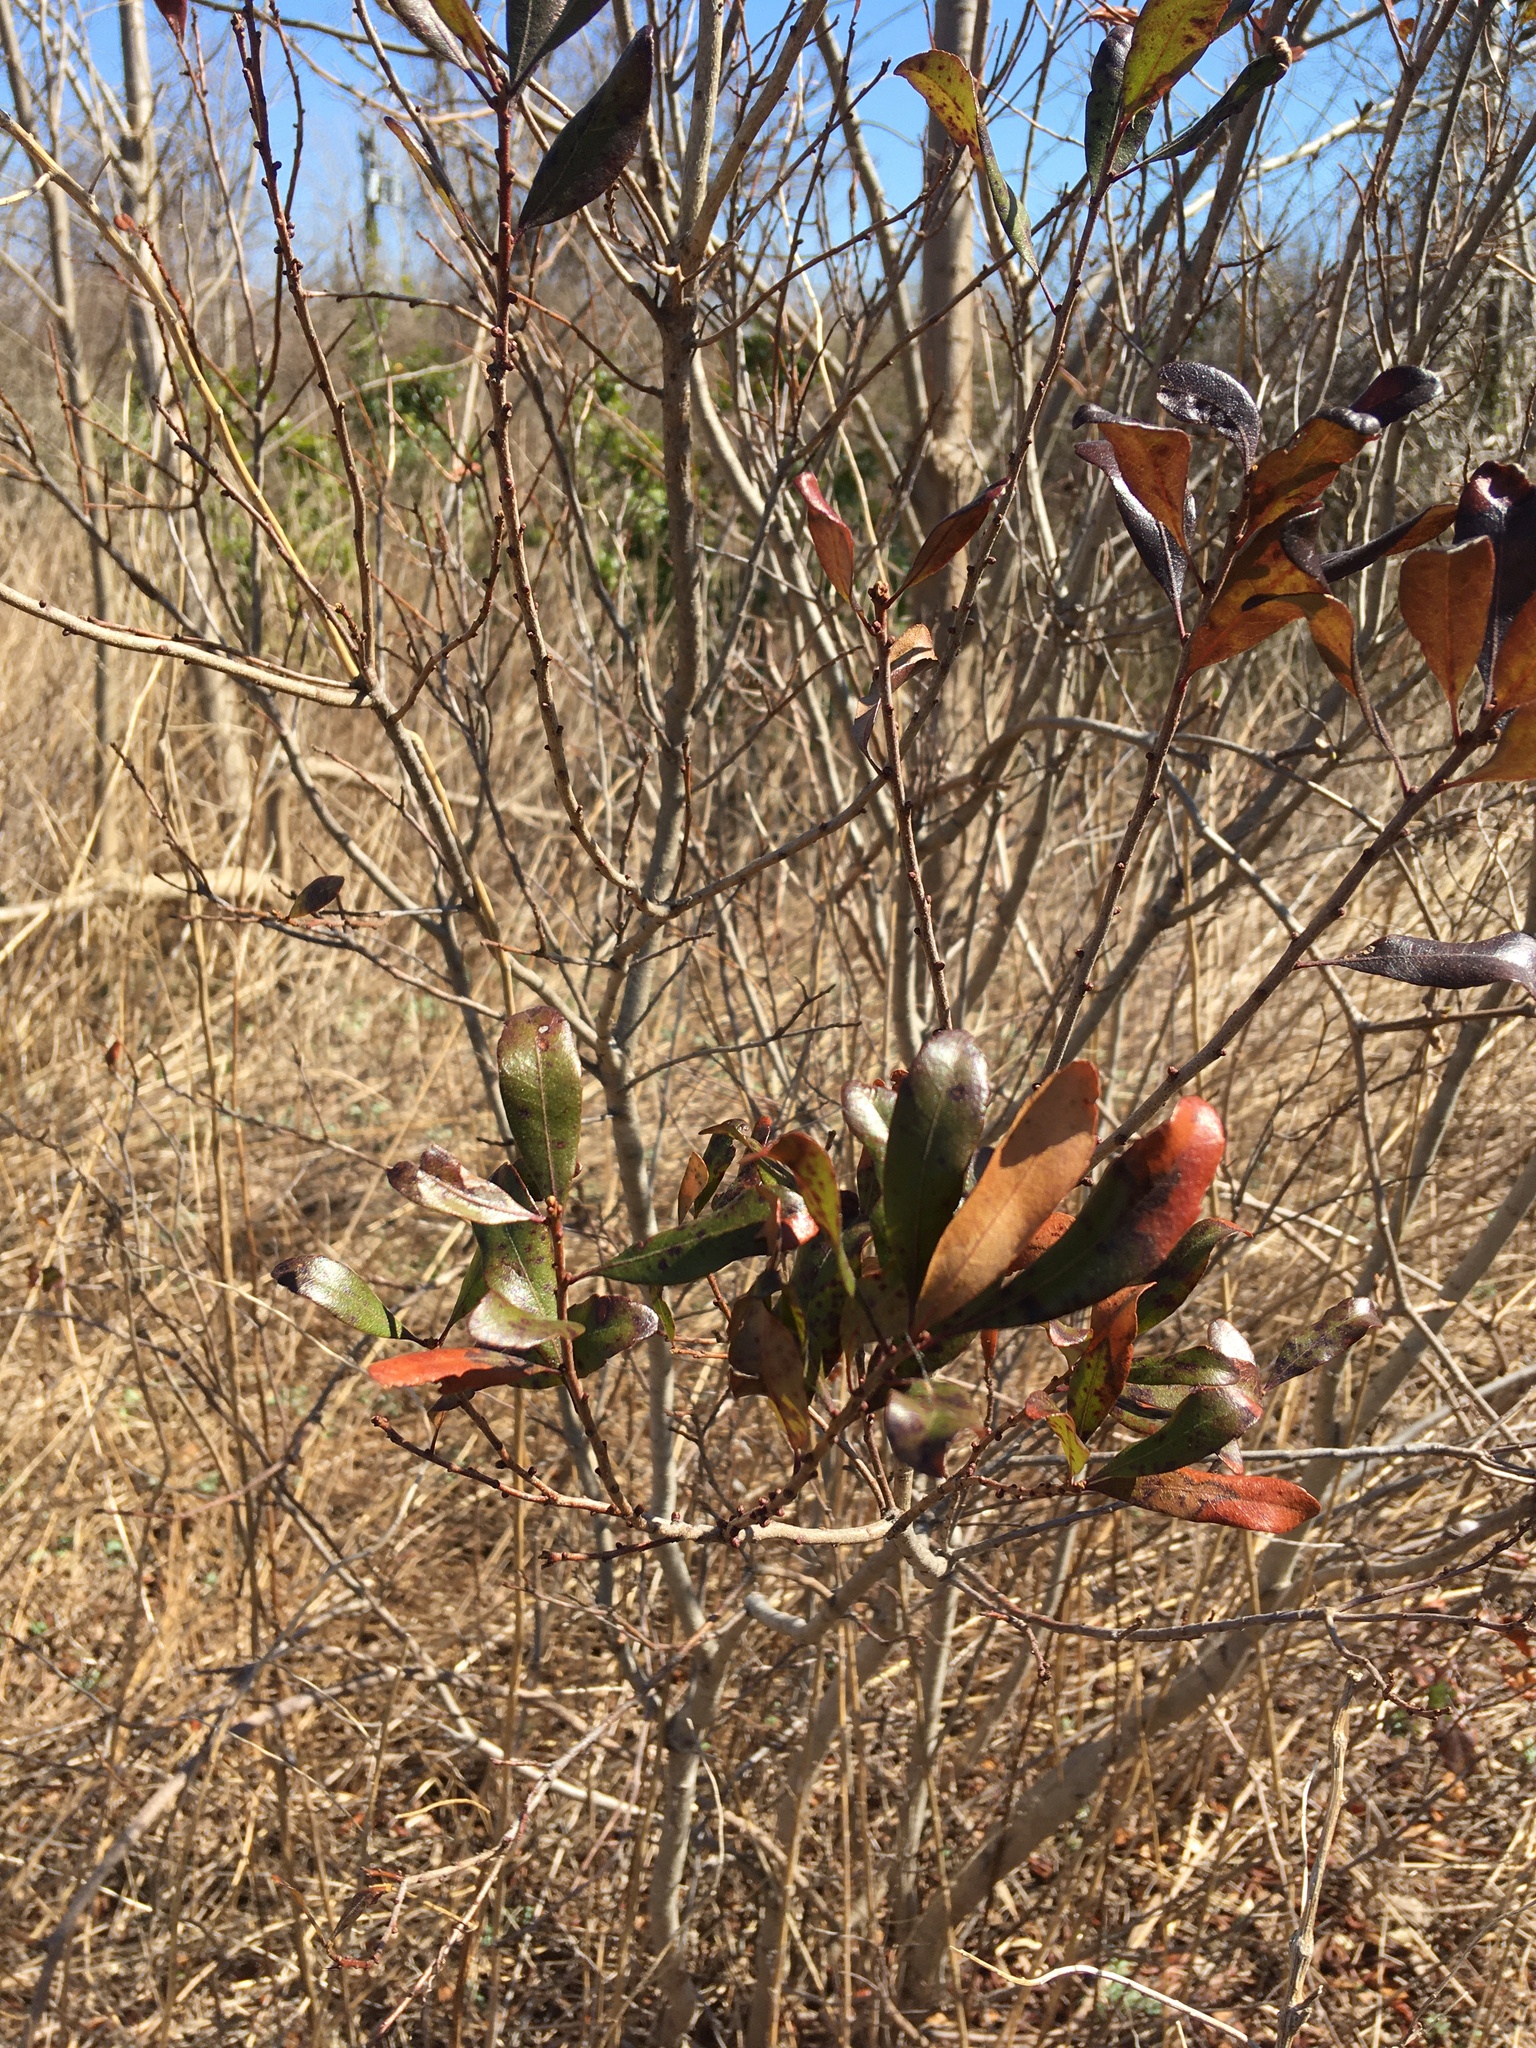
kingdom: Plantae
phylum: Tracheophyta
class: Magnoliopsida
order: Fagales
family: Myricaceae
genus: Morella
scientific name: Morella pensylvanica
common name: Northern bayberry
